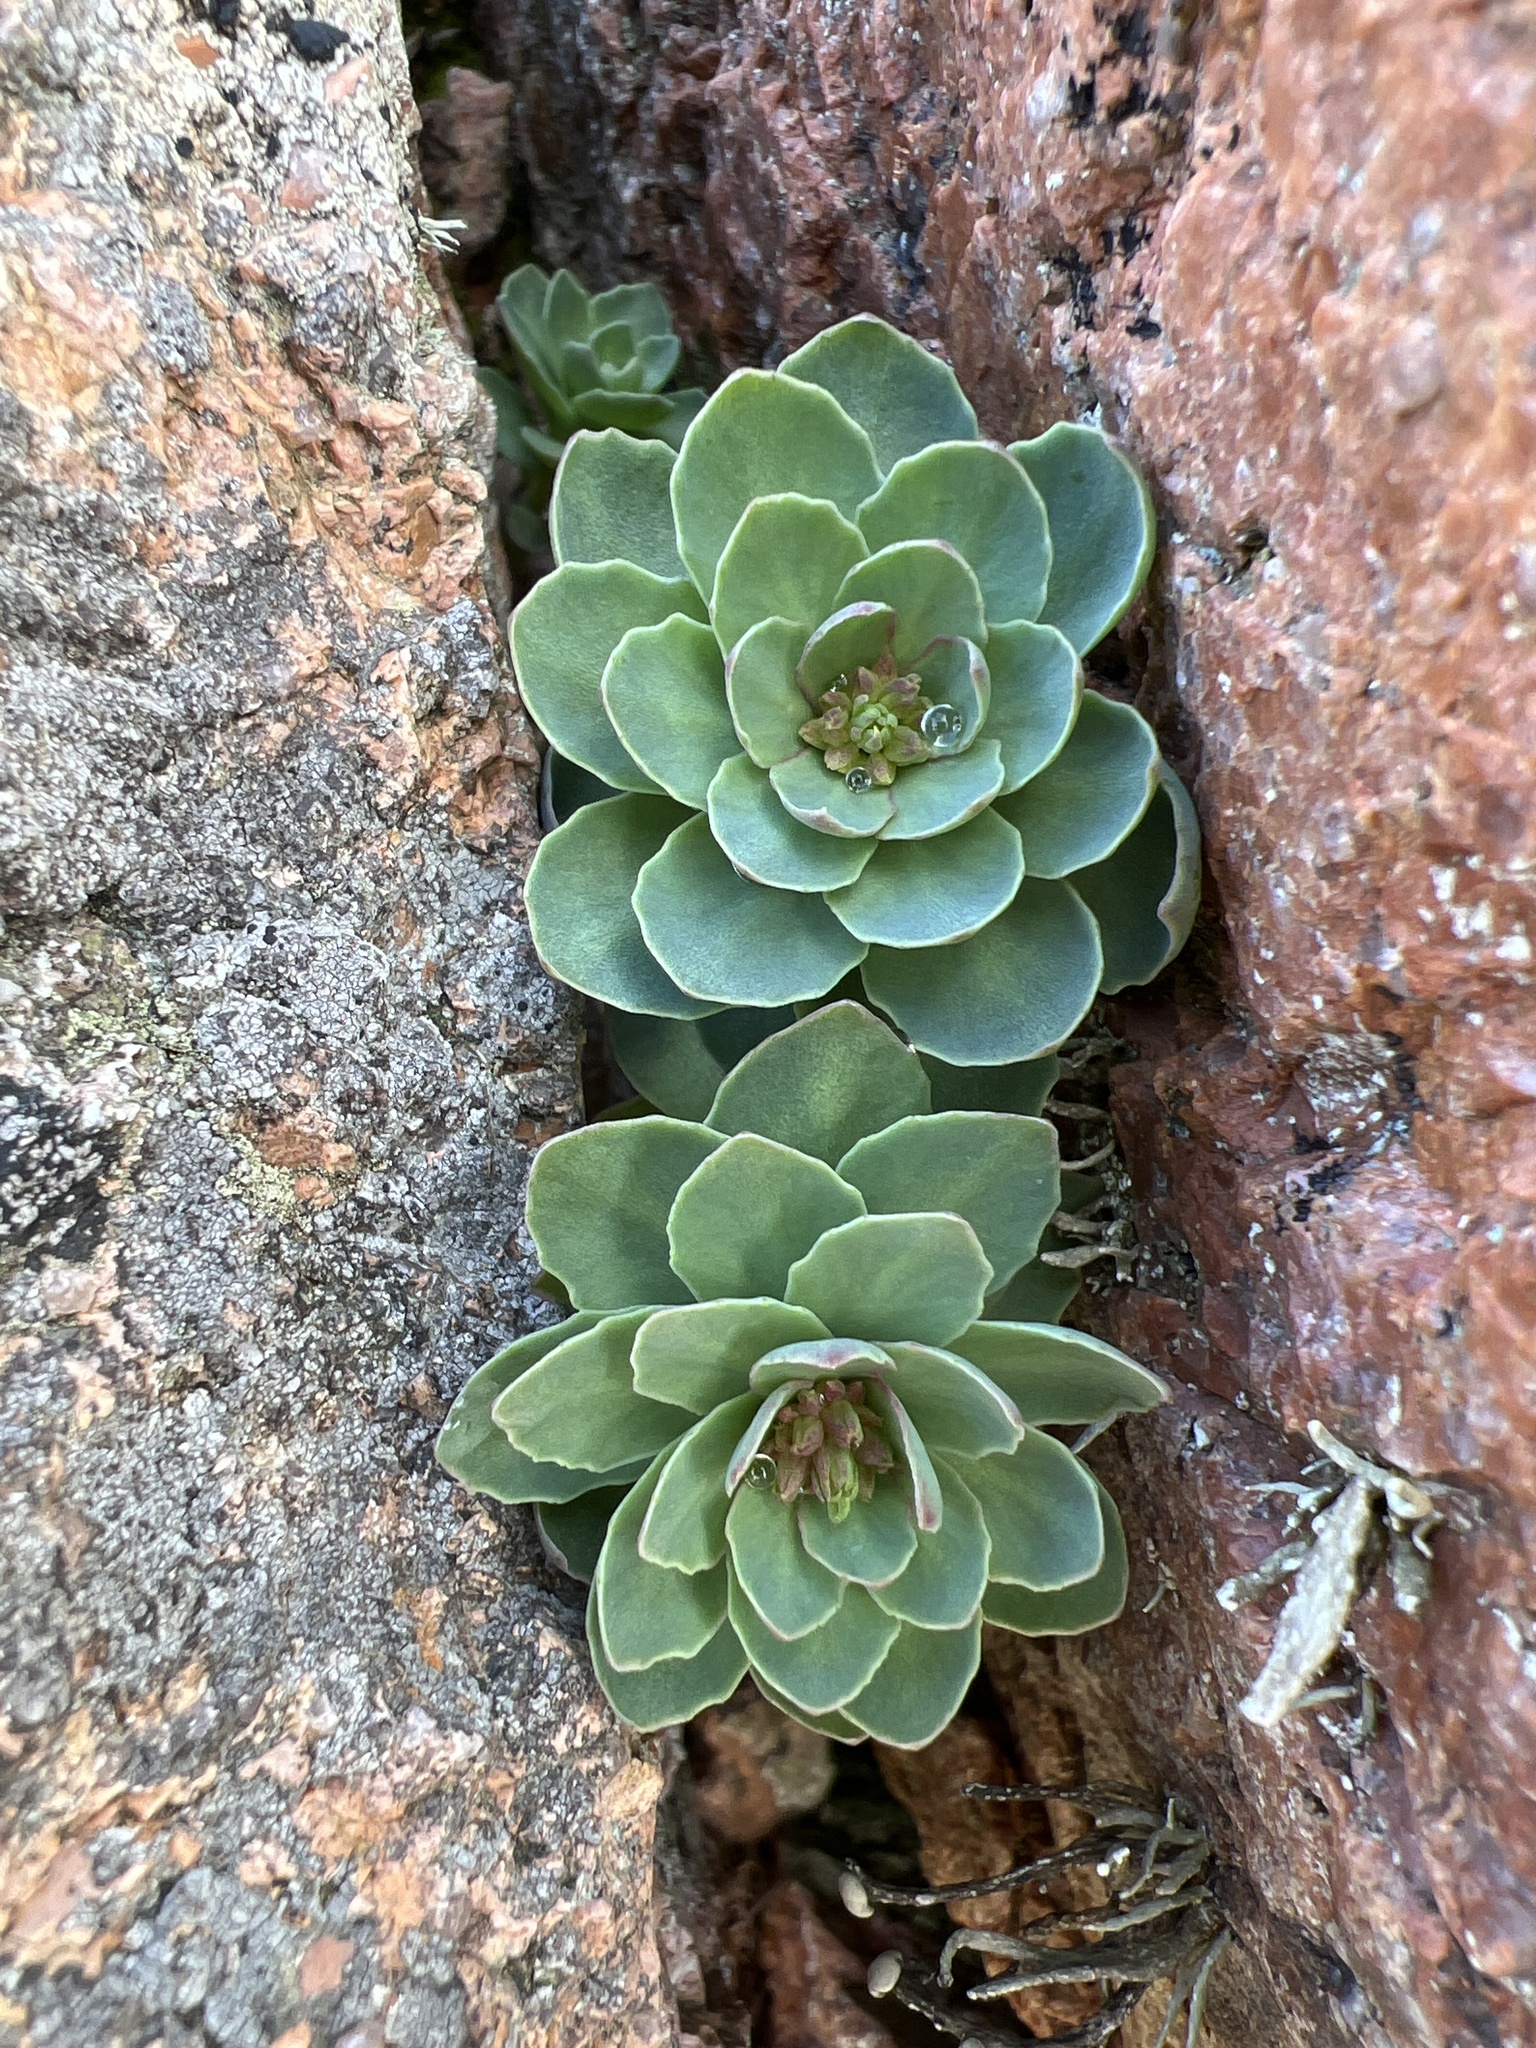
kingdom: Plantae
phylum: Tracheophyta
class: Magnoliopsida
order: Saxifragales
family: Crassulaceae
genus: Rhodiola
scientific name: Rhodiola rosea
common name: Roseroot
